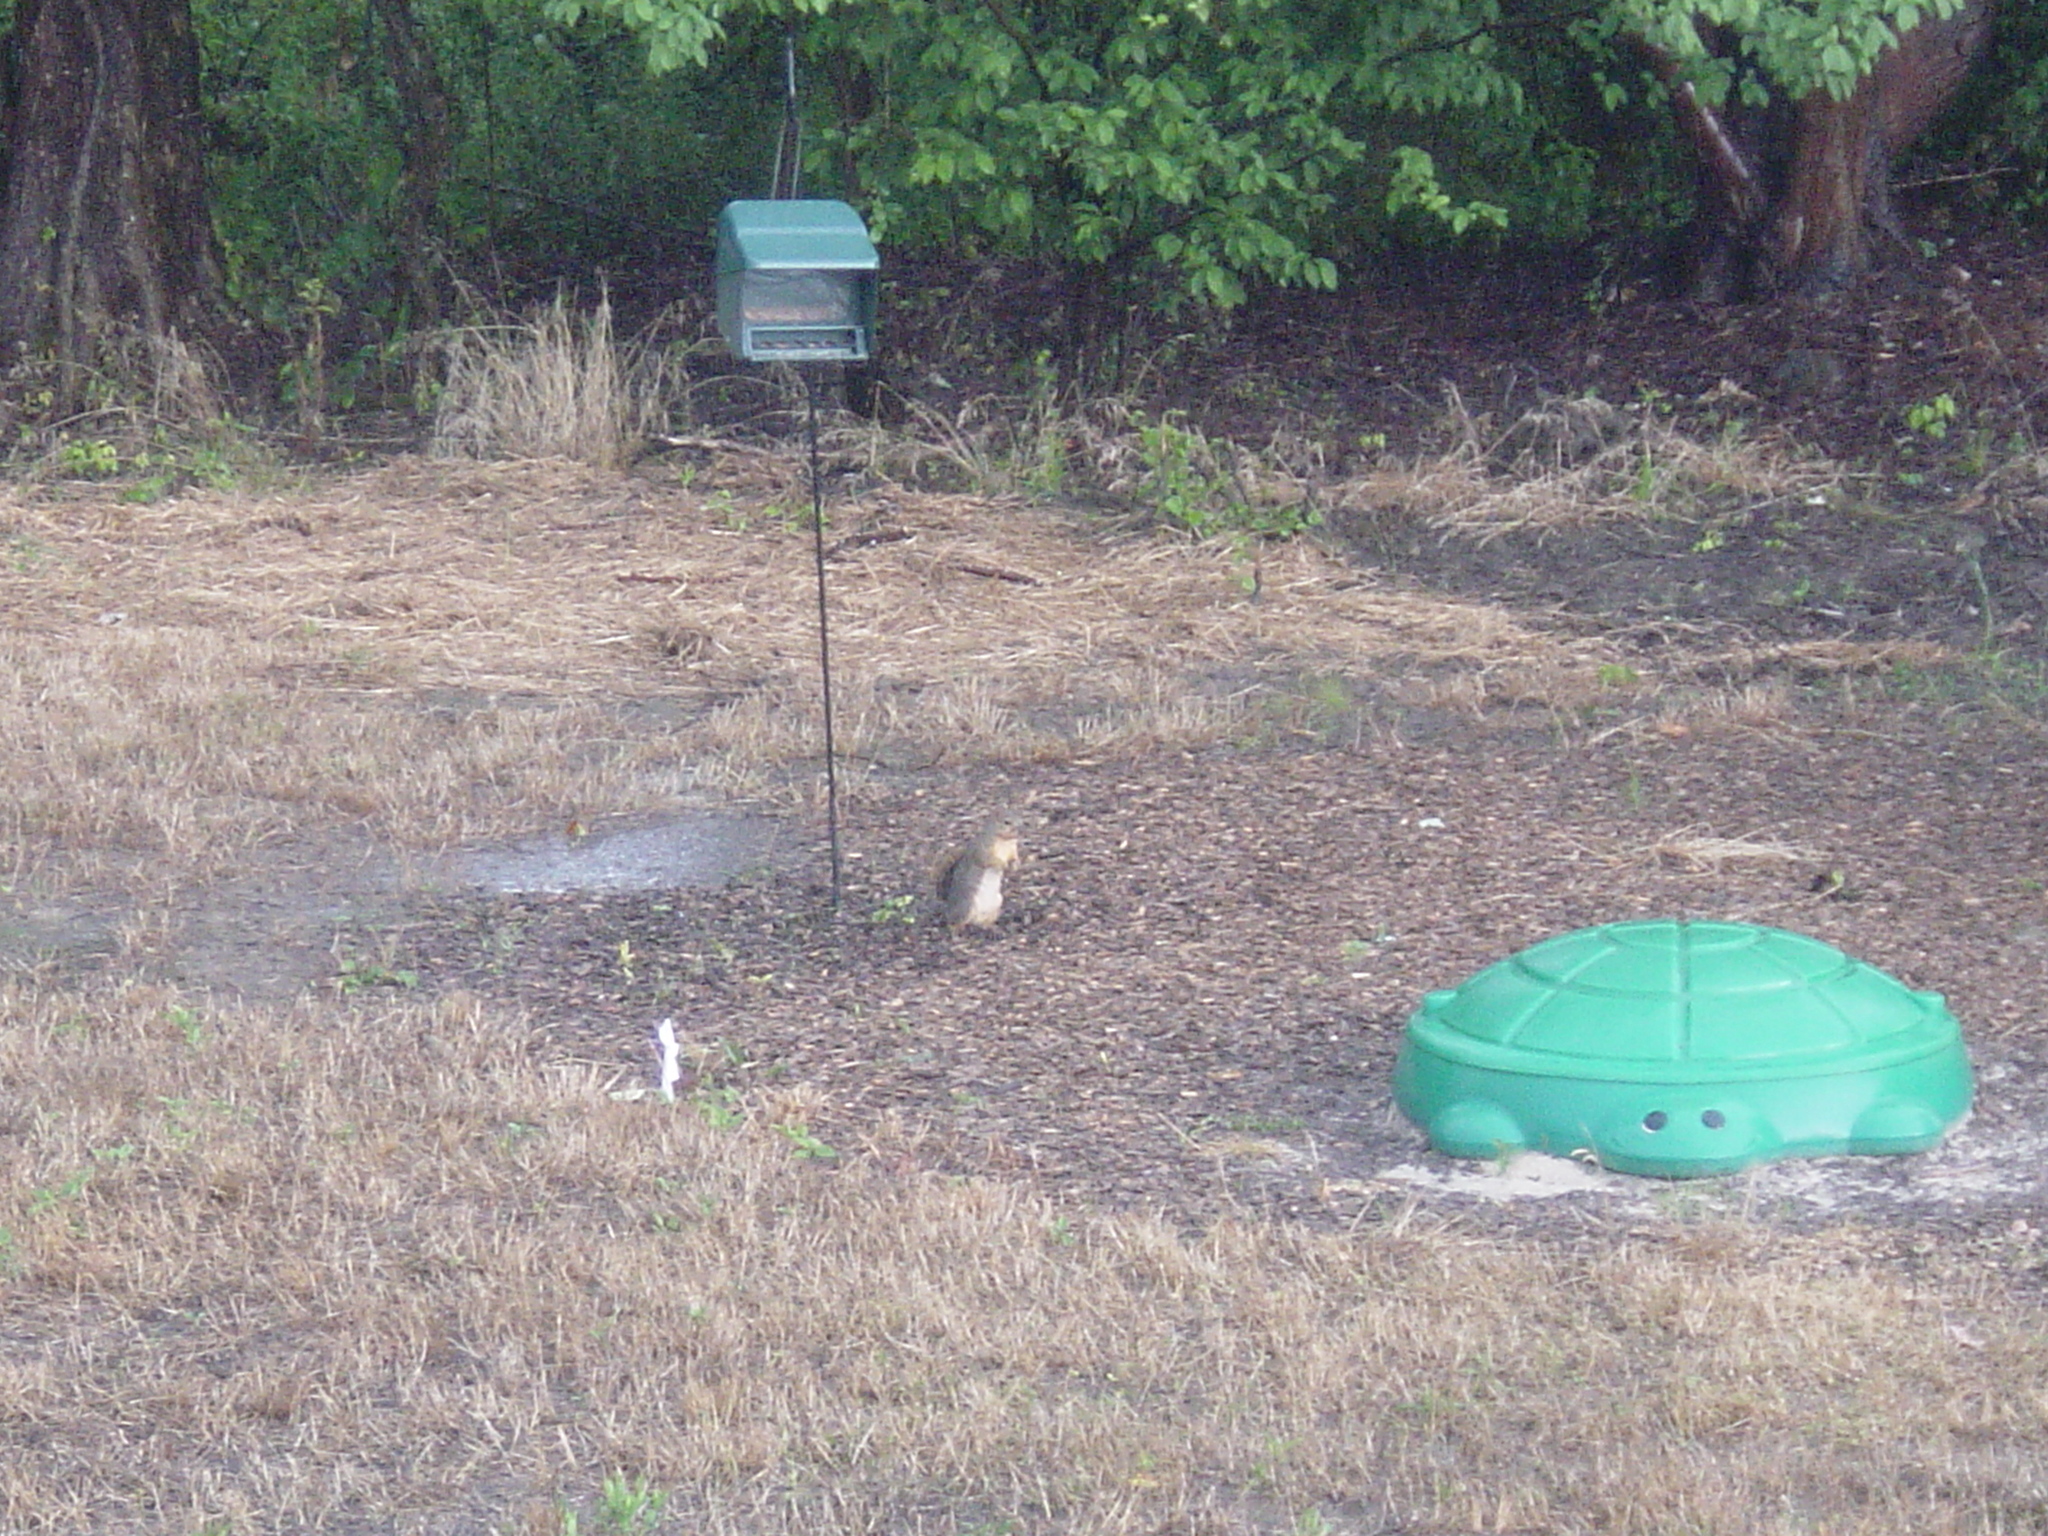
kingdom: Animalia
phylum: Chordata
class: Mammalia
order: Rodentia
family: Sciuridae
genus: Sciurus
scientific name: Sciurus niger
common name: Fox squirrel
